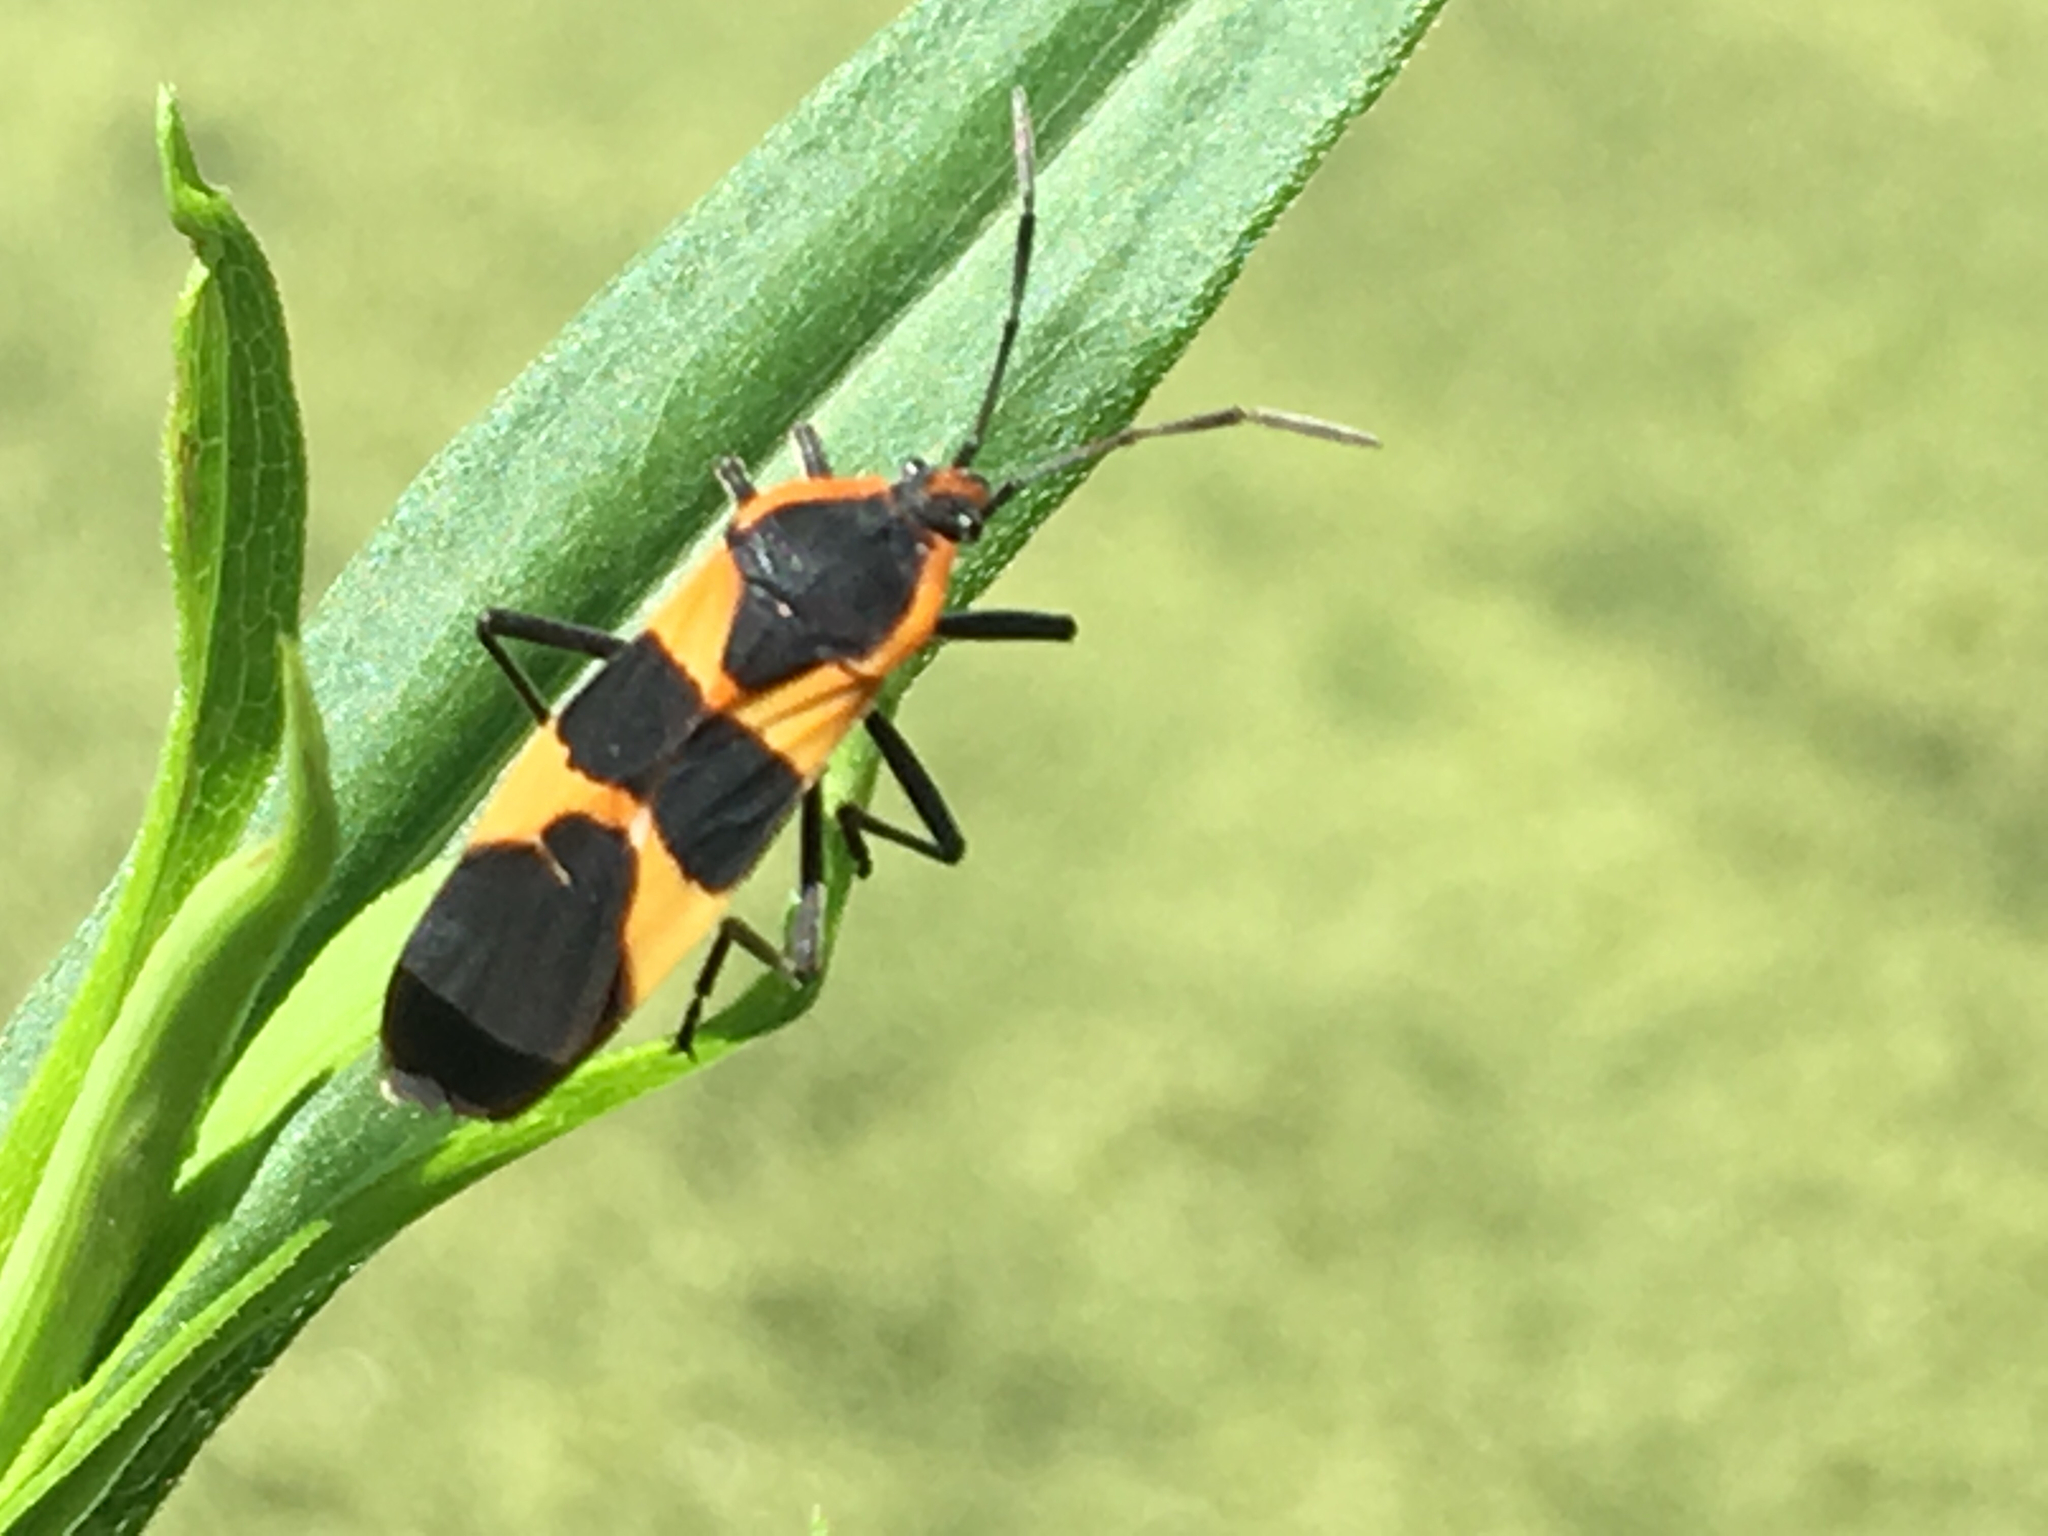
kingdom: Animalia
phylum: Arthropoda
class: Insecta
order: Hemiptera
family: Lygaeidae
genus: Oncopeltus
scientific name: Oncopeltus fasciatus
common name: Large milkweed bug
